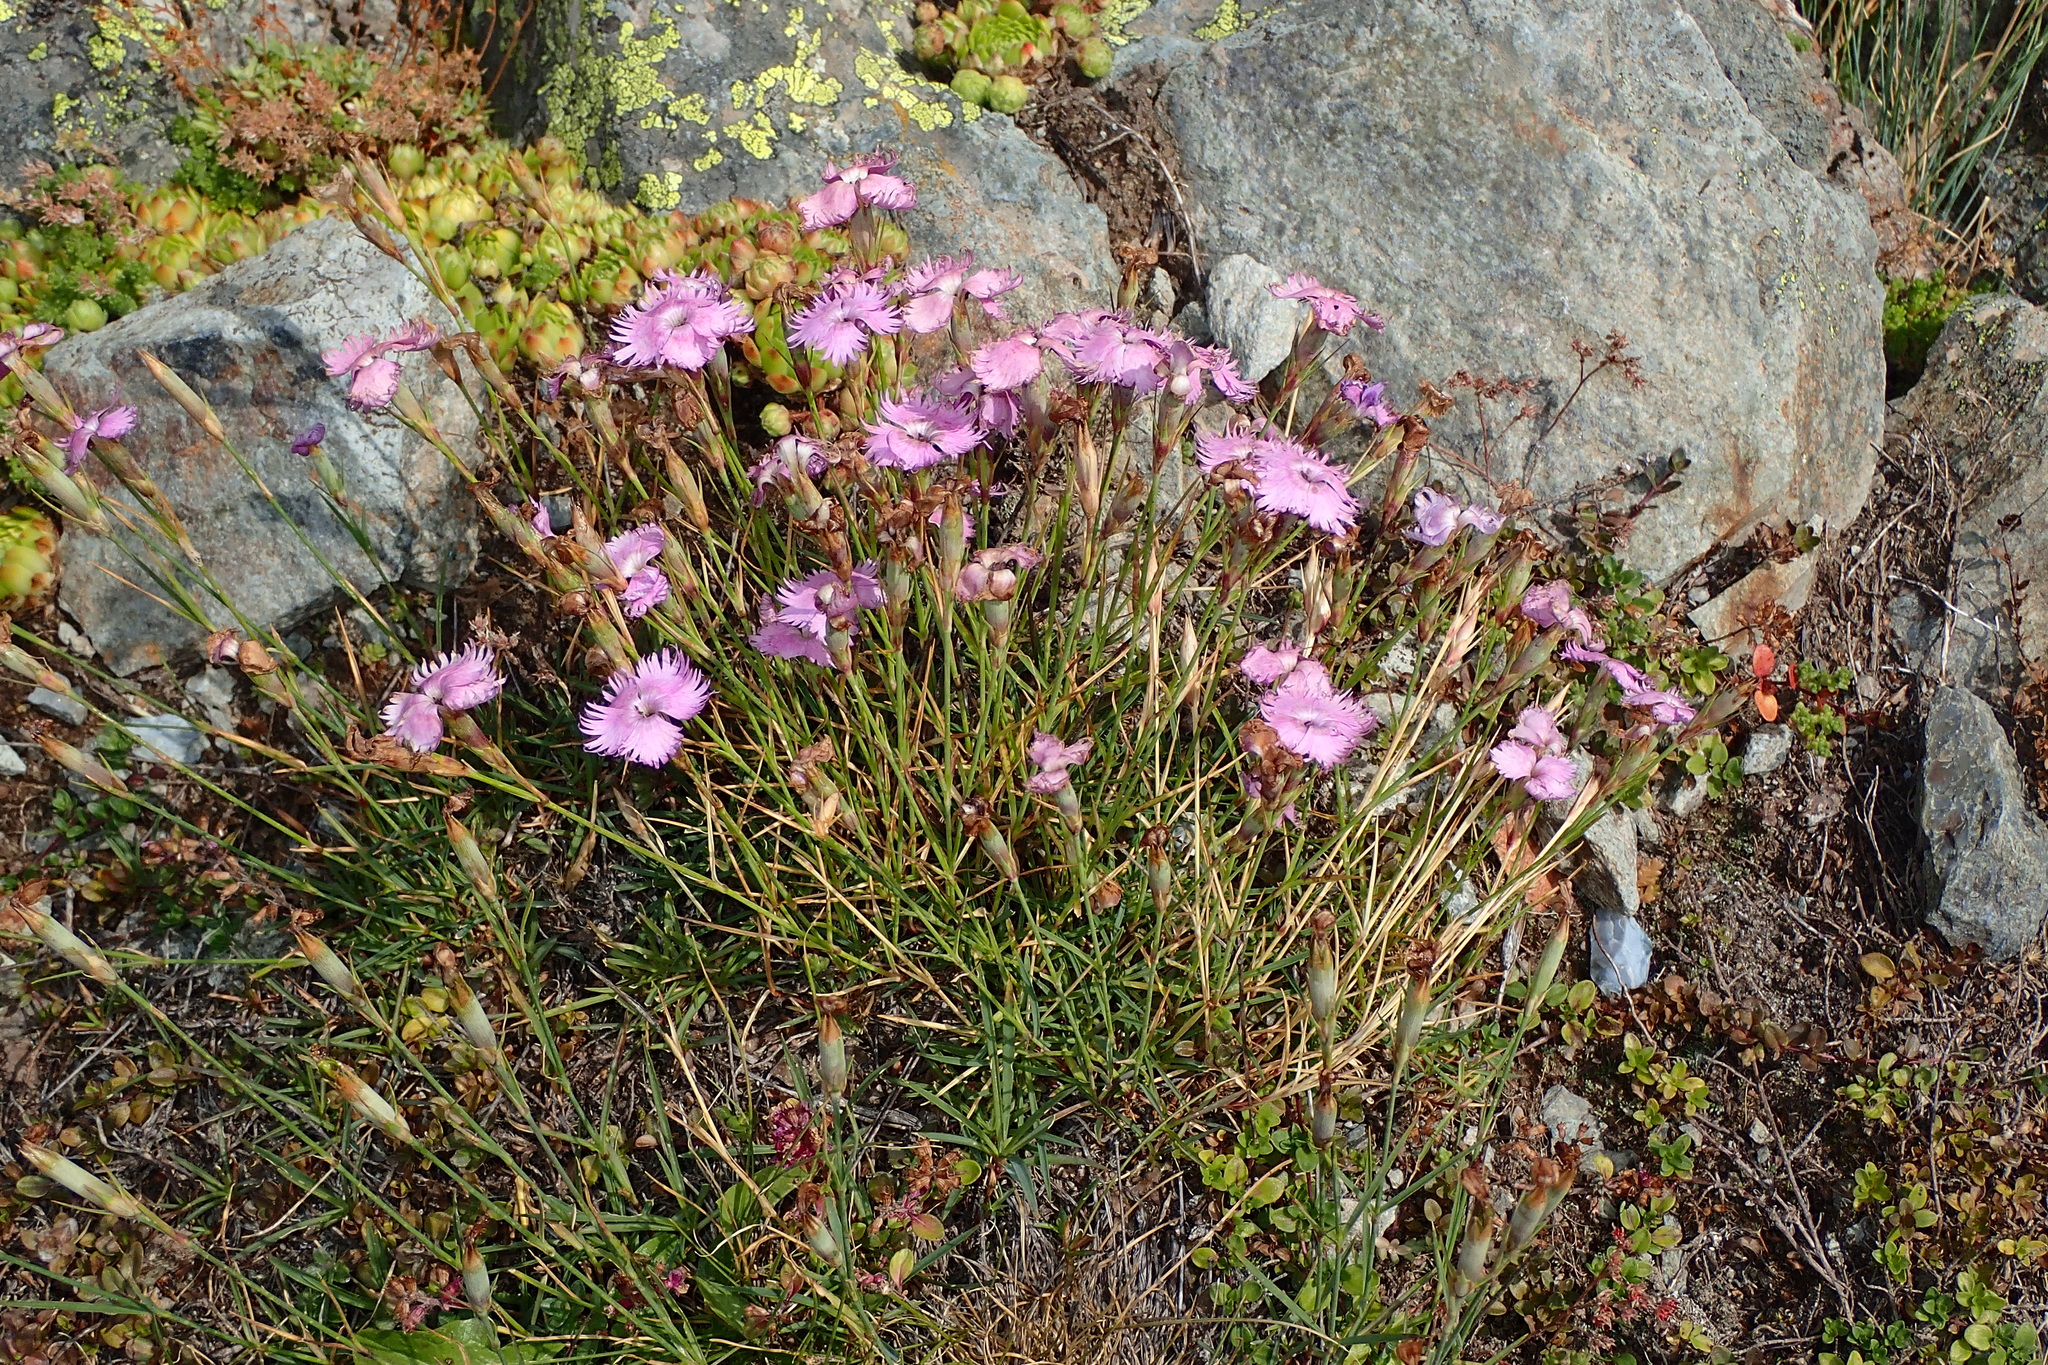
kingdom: Plantae
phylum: Tracheophyta
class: Magnoliopsida
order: Caryophyllales
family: Caryophyllaceae
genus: Dianthus
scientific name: Dianthus hyssopifolius
